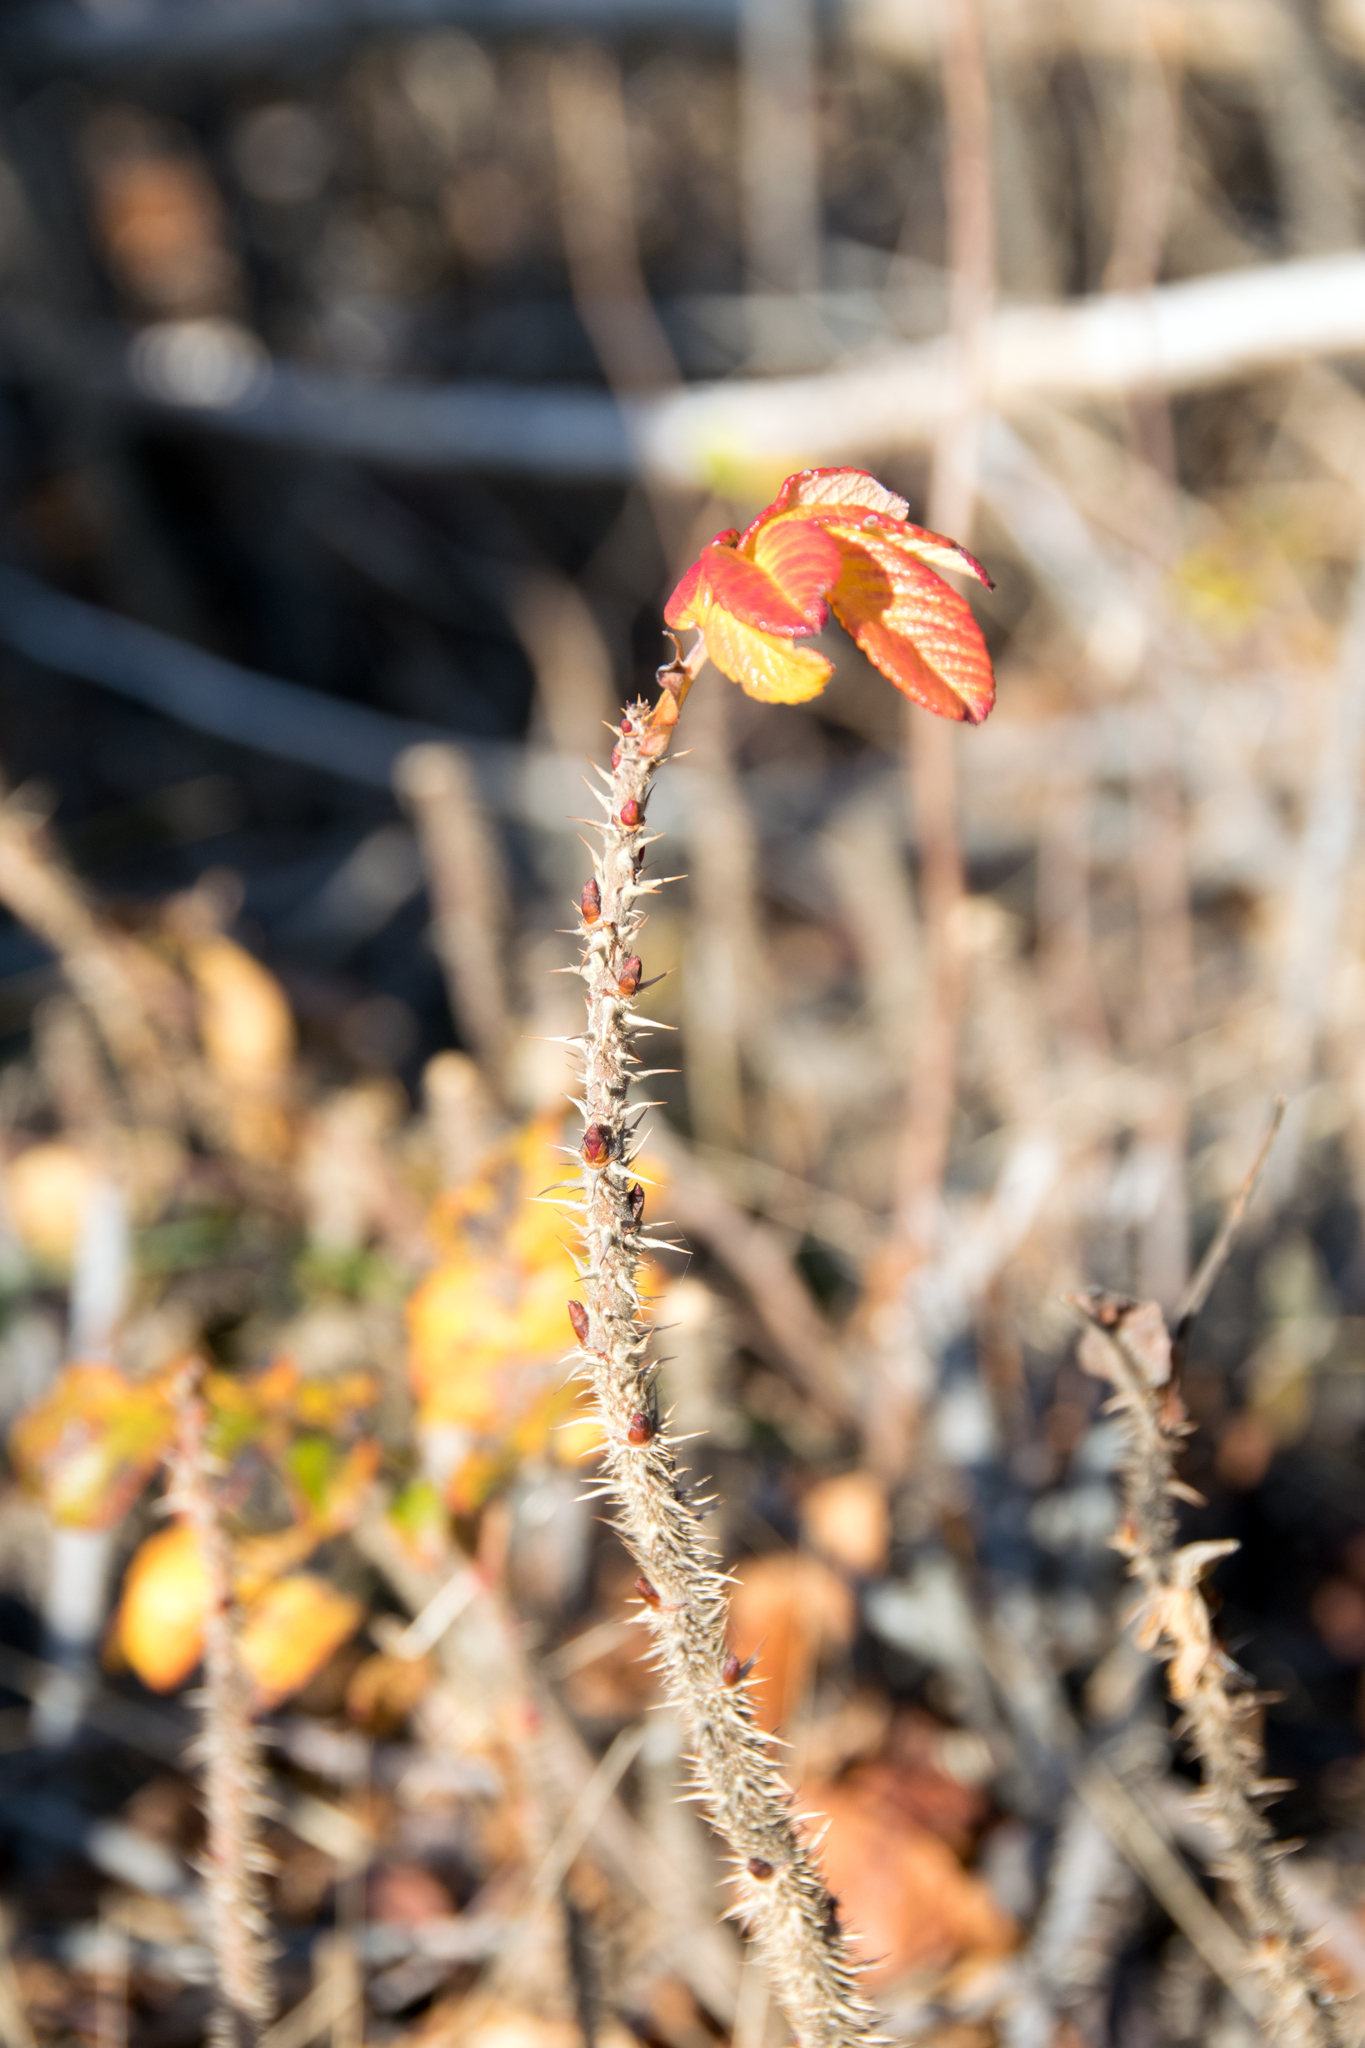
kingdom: Plantae
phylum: Tracheophyta
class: Magnoliopsida
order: Rosales
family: Rosaceae
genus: Rosa
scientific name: Rosa rugosa
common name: Japanese rose
